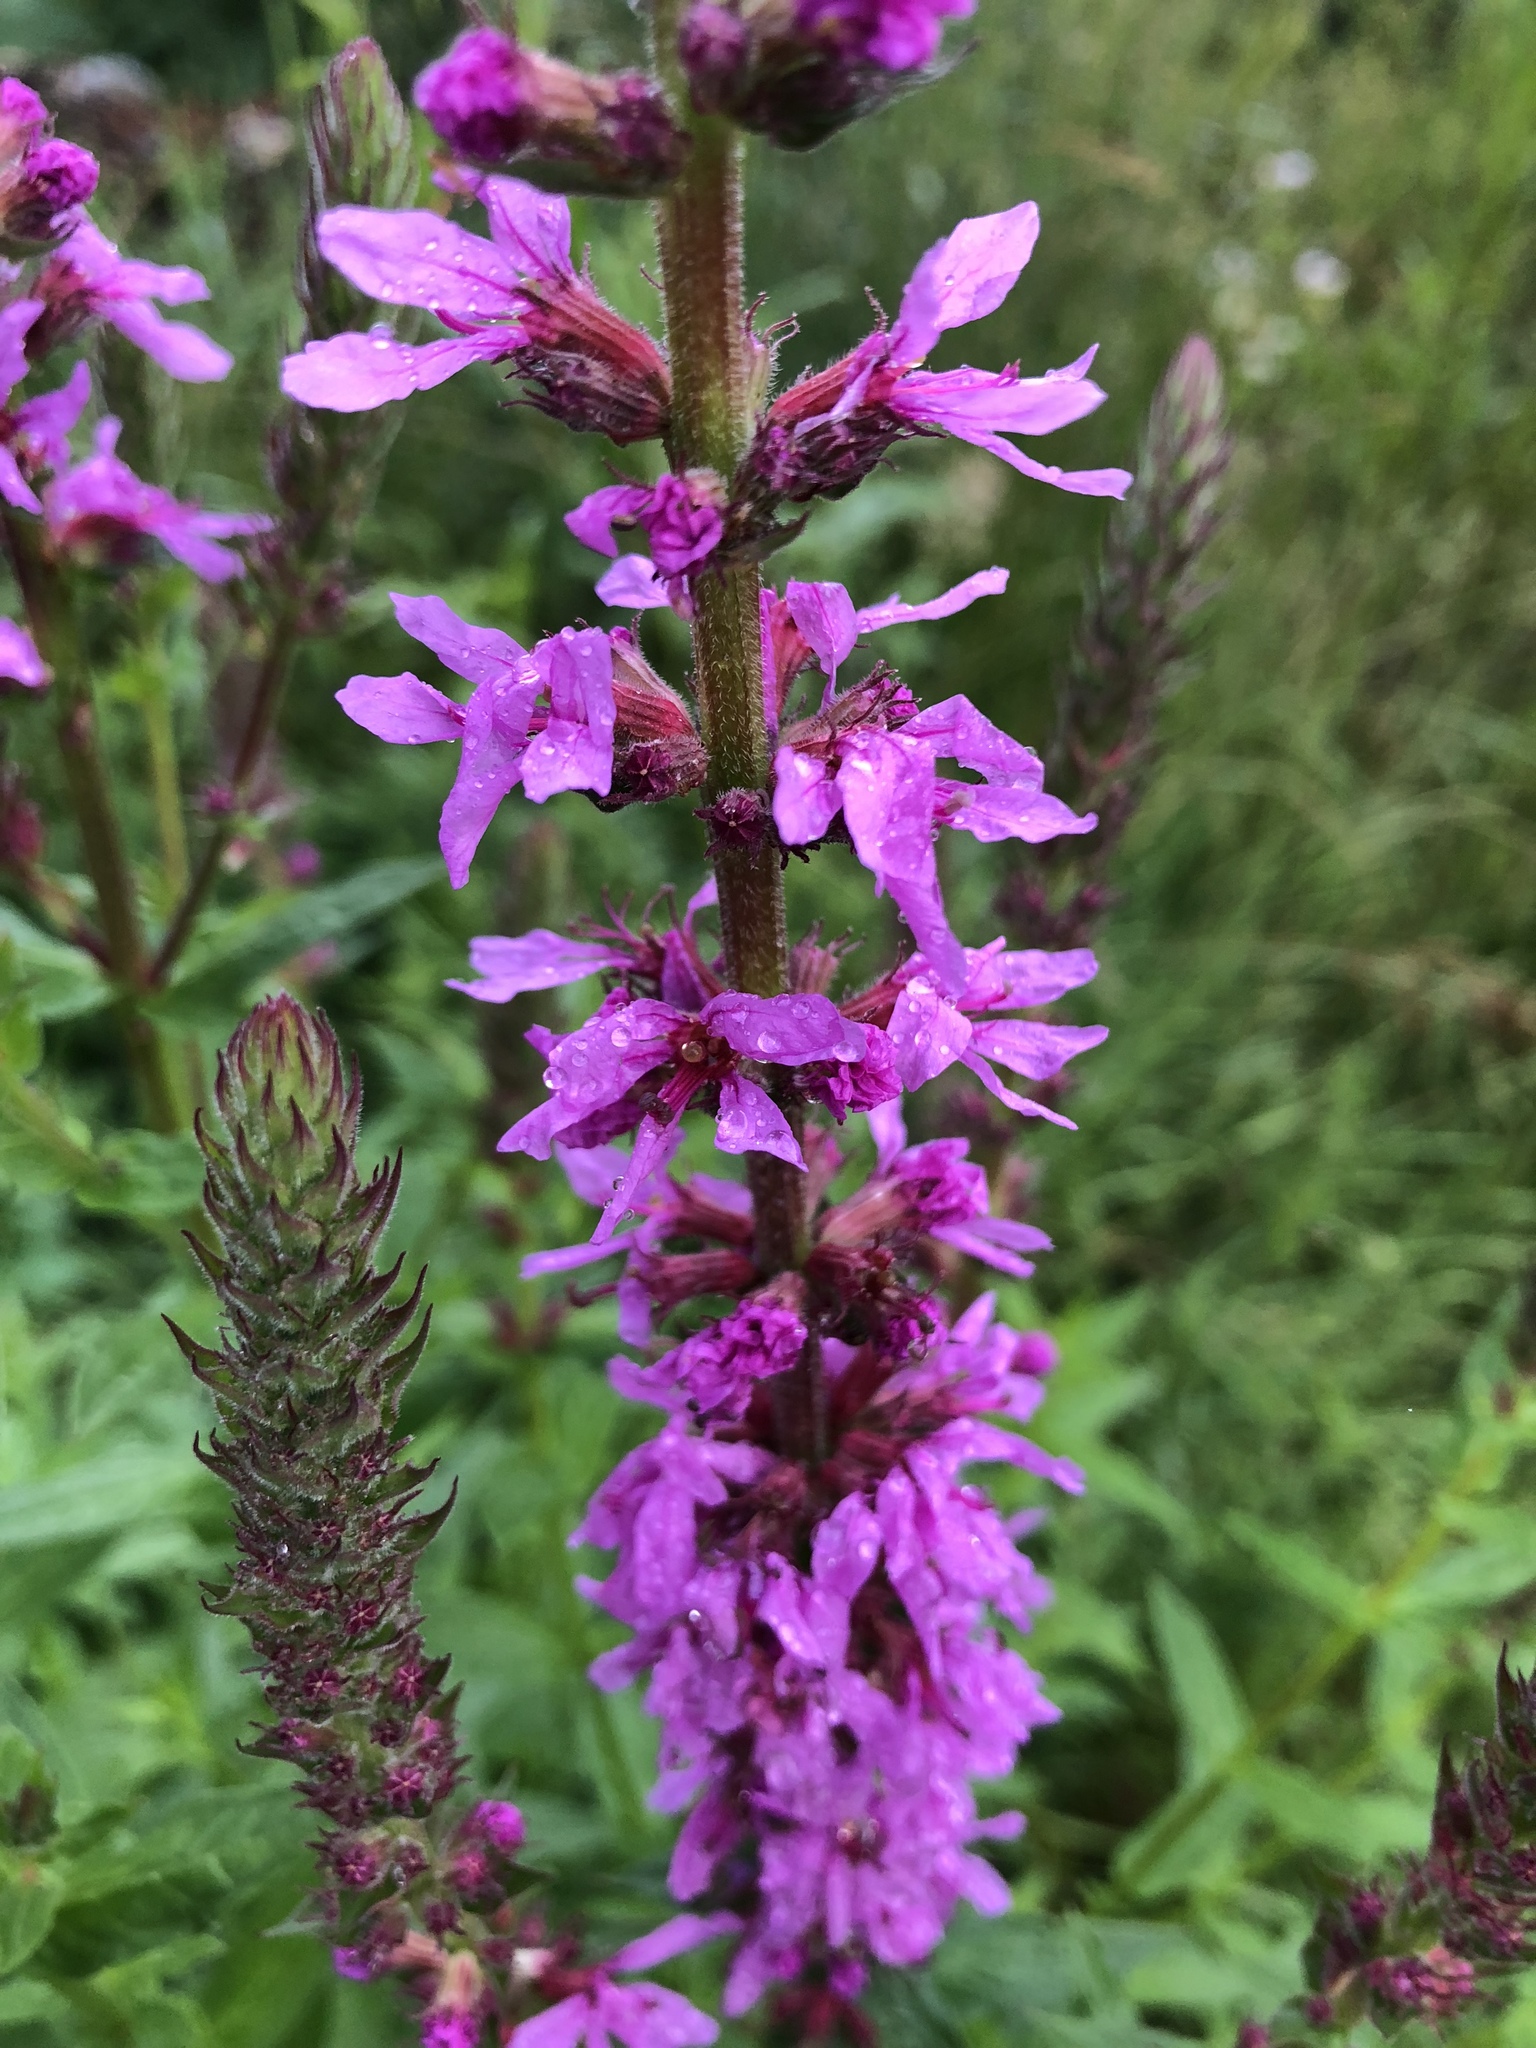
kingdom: Plantae
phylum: Tracheophyta
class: Magnoliopsida
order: Myrtales
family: Lythraceae
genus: Lythrum
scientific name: Lythrum salicaria
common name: Purple loosestrife
